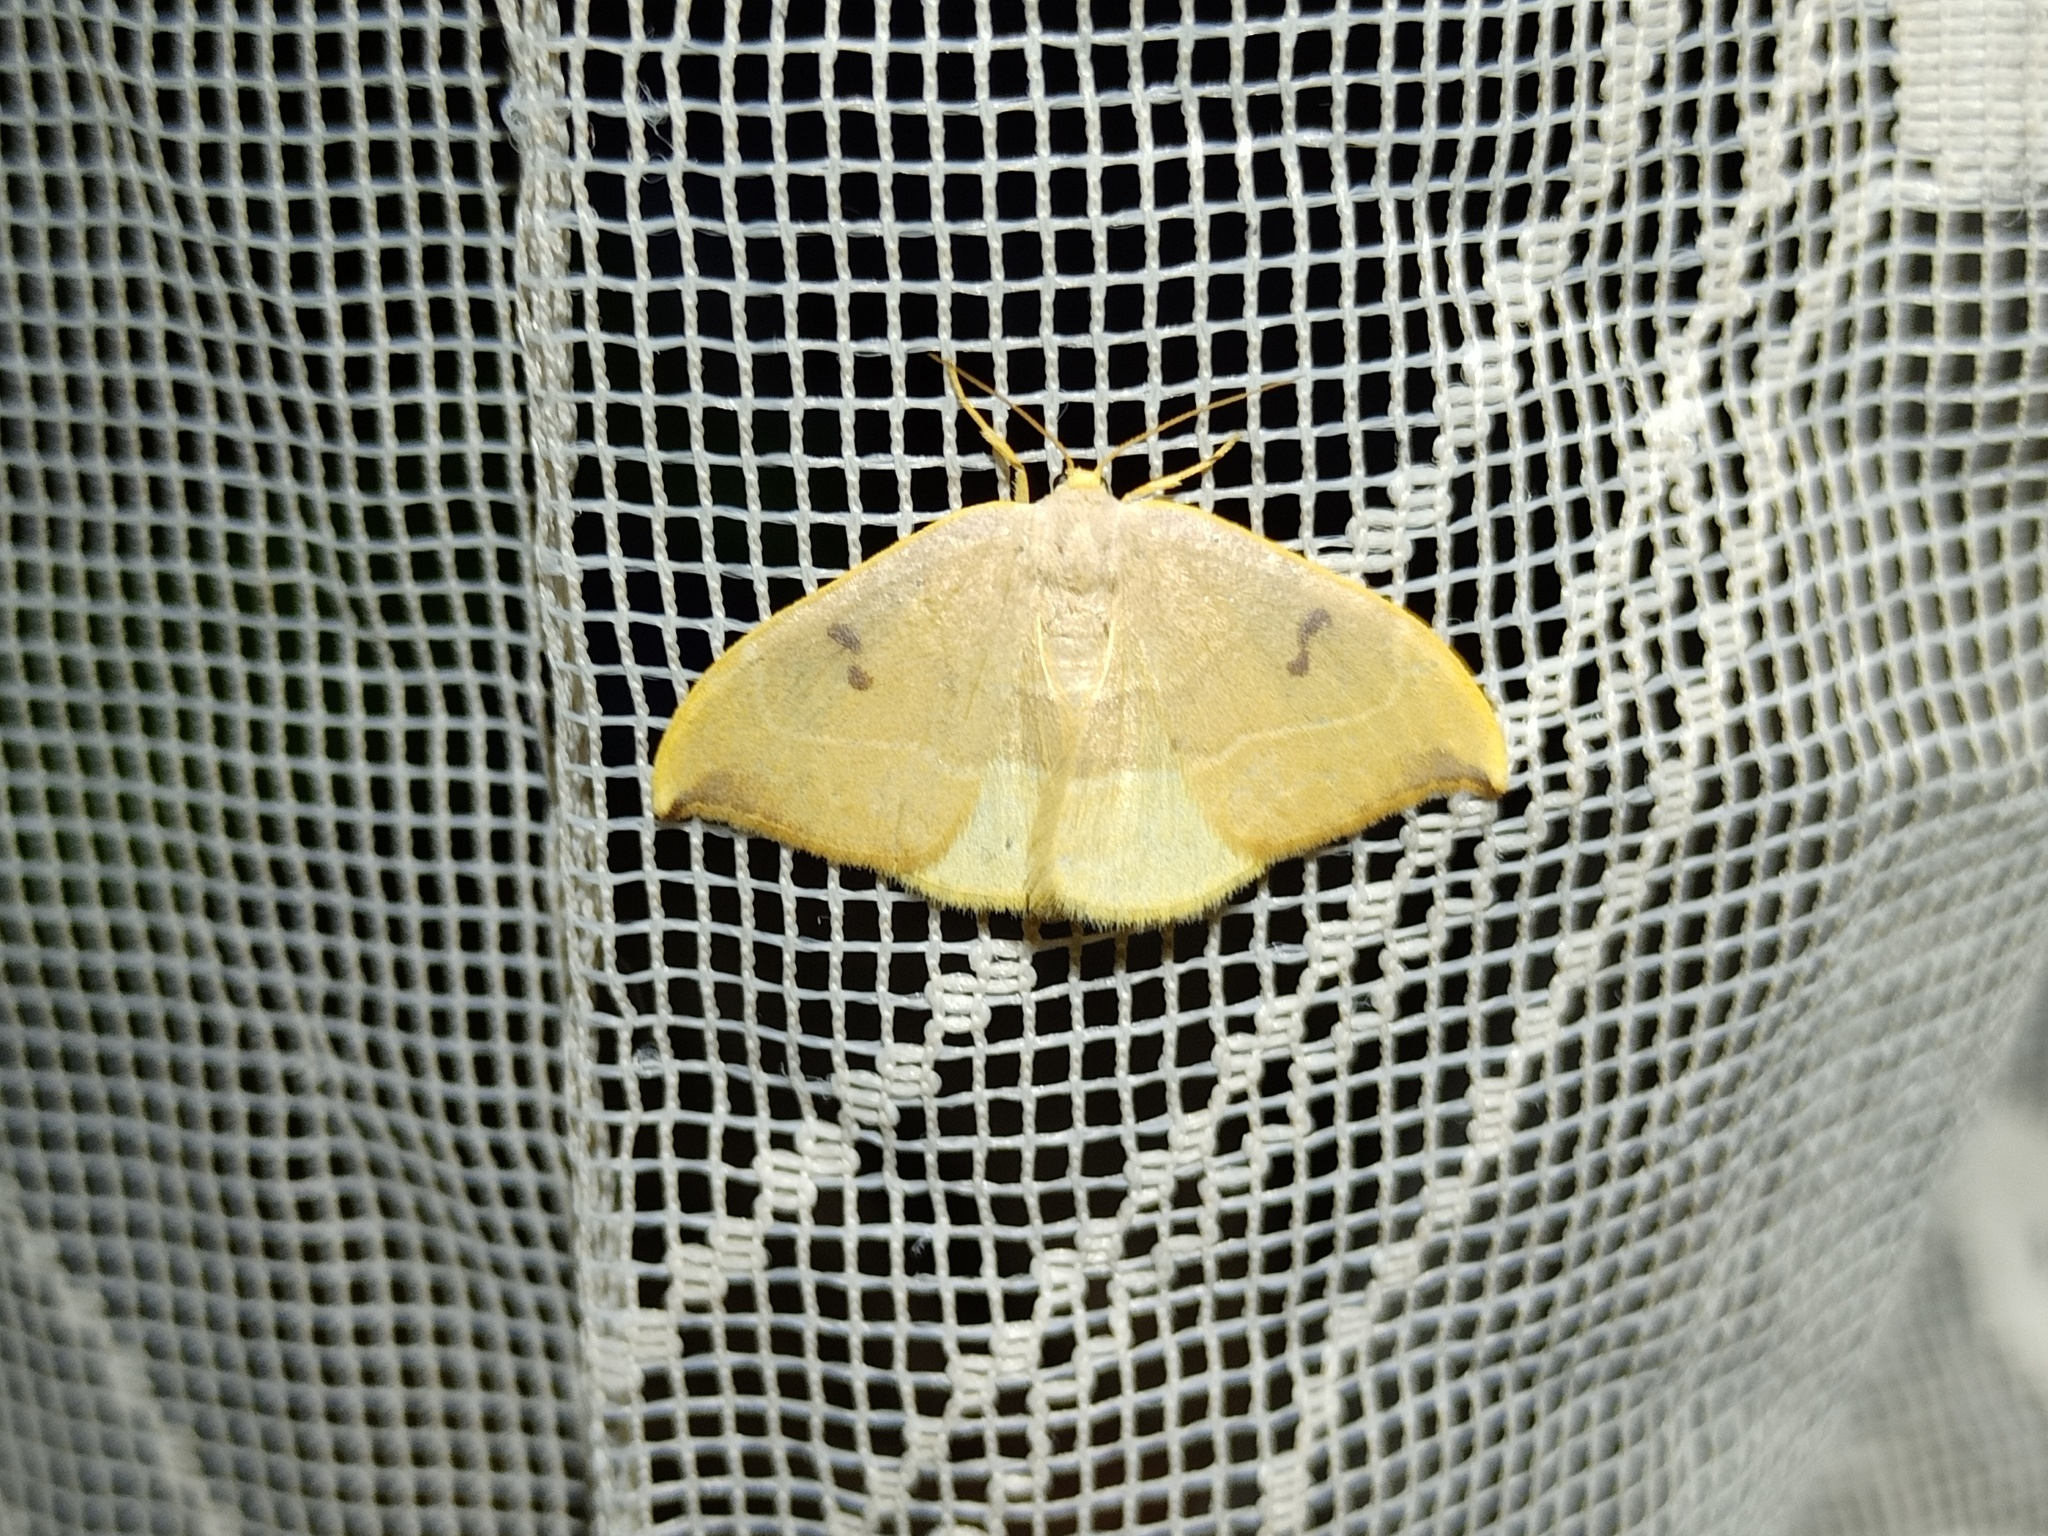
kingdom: Animalia
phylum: Arthropoda
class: Insecta
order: Lepidoptera
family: Drepanidae
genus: Watsonalla
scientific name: Watsonalla binaria
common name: Oak hook-tip
